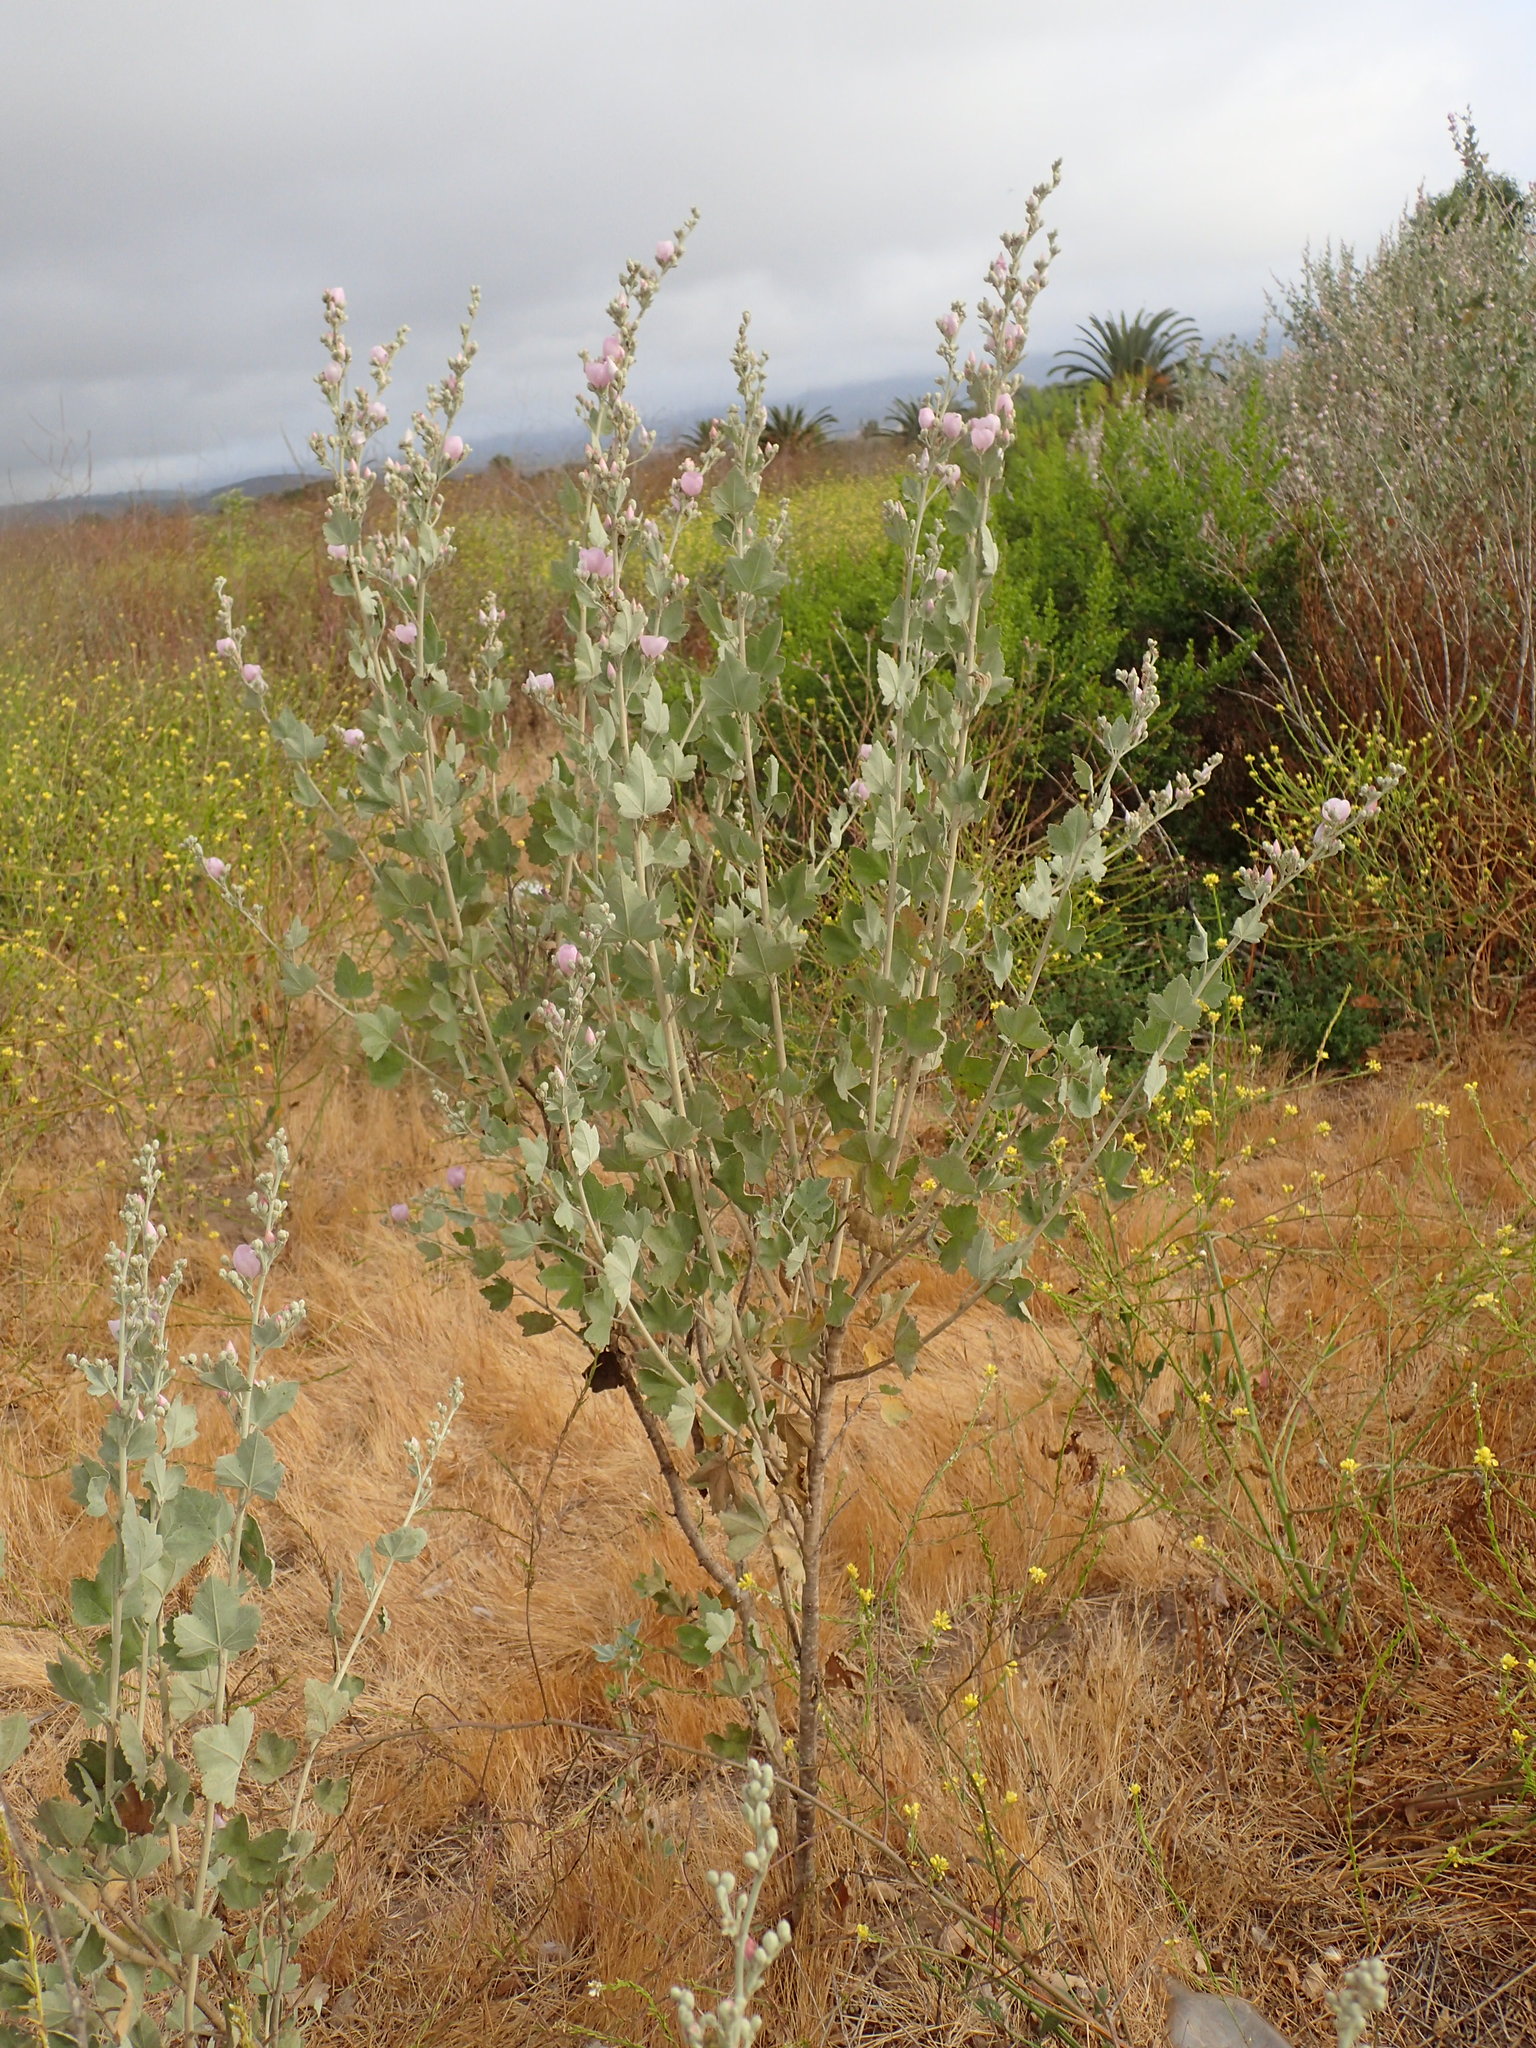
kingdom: Plantae
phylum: Tracheophyta
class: Magnoliopsida
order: Malvales
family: Malvaceae
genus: Malacothamnus
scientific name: Malacothamnus fasciculatus
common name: Sant cruz island bush-mallow
